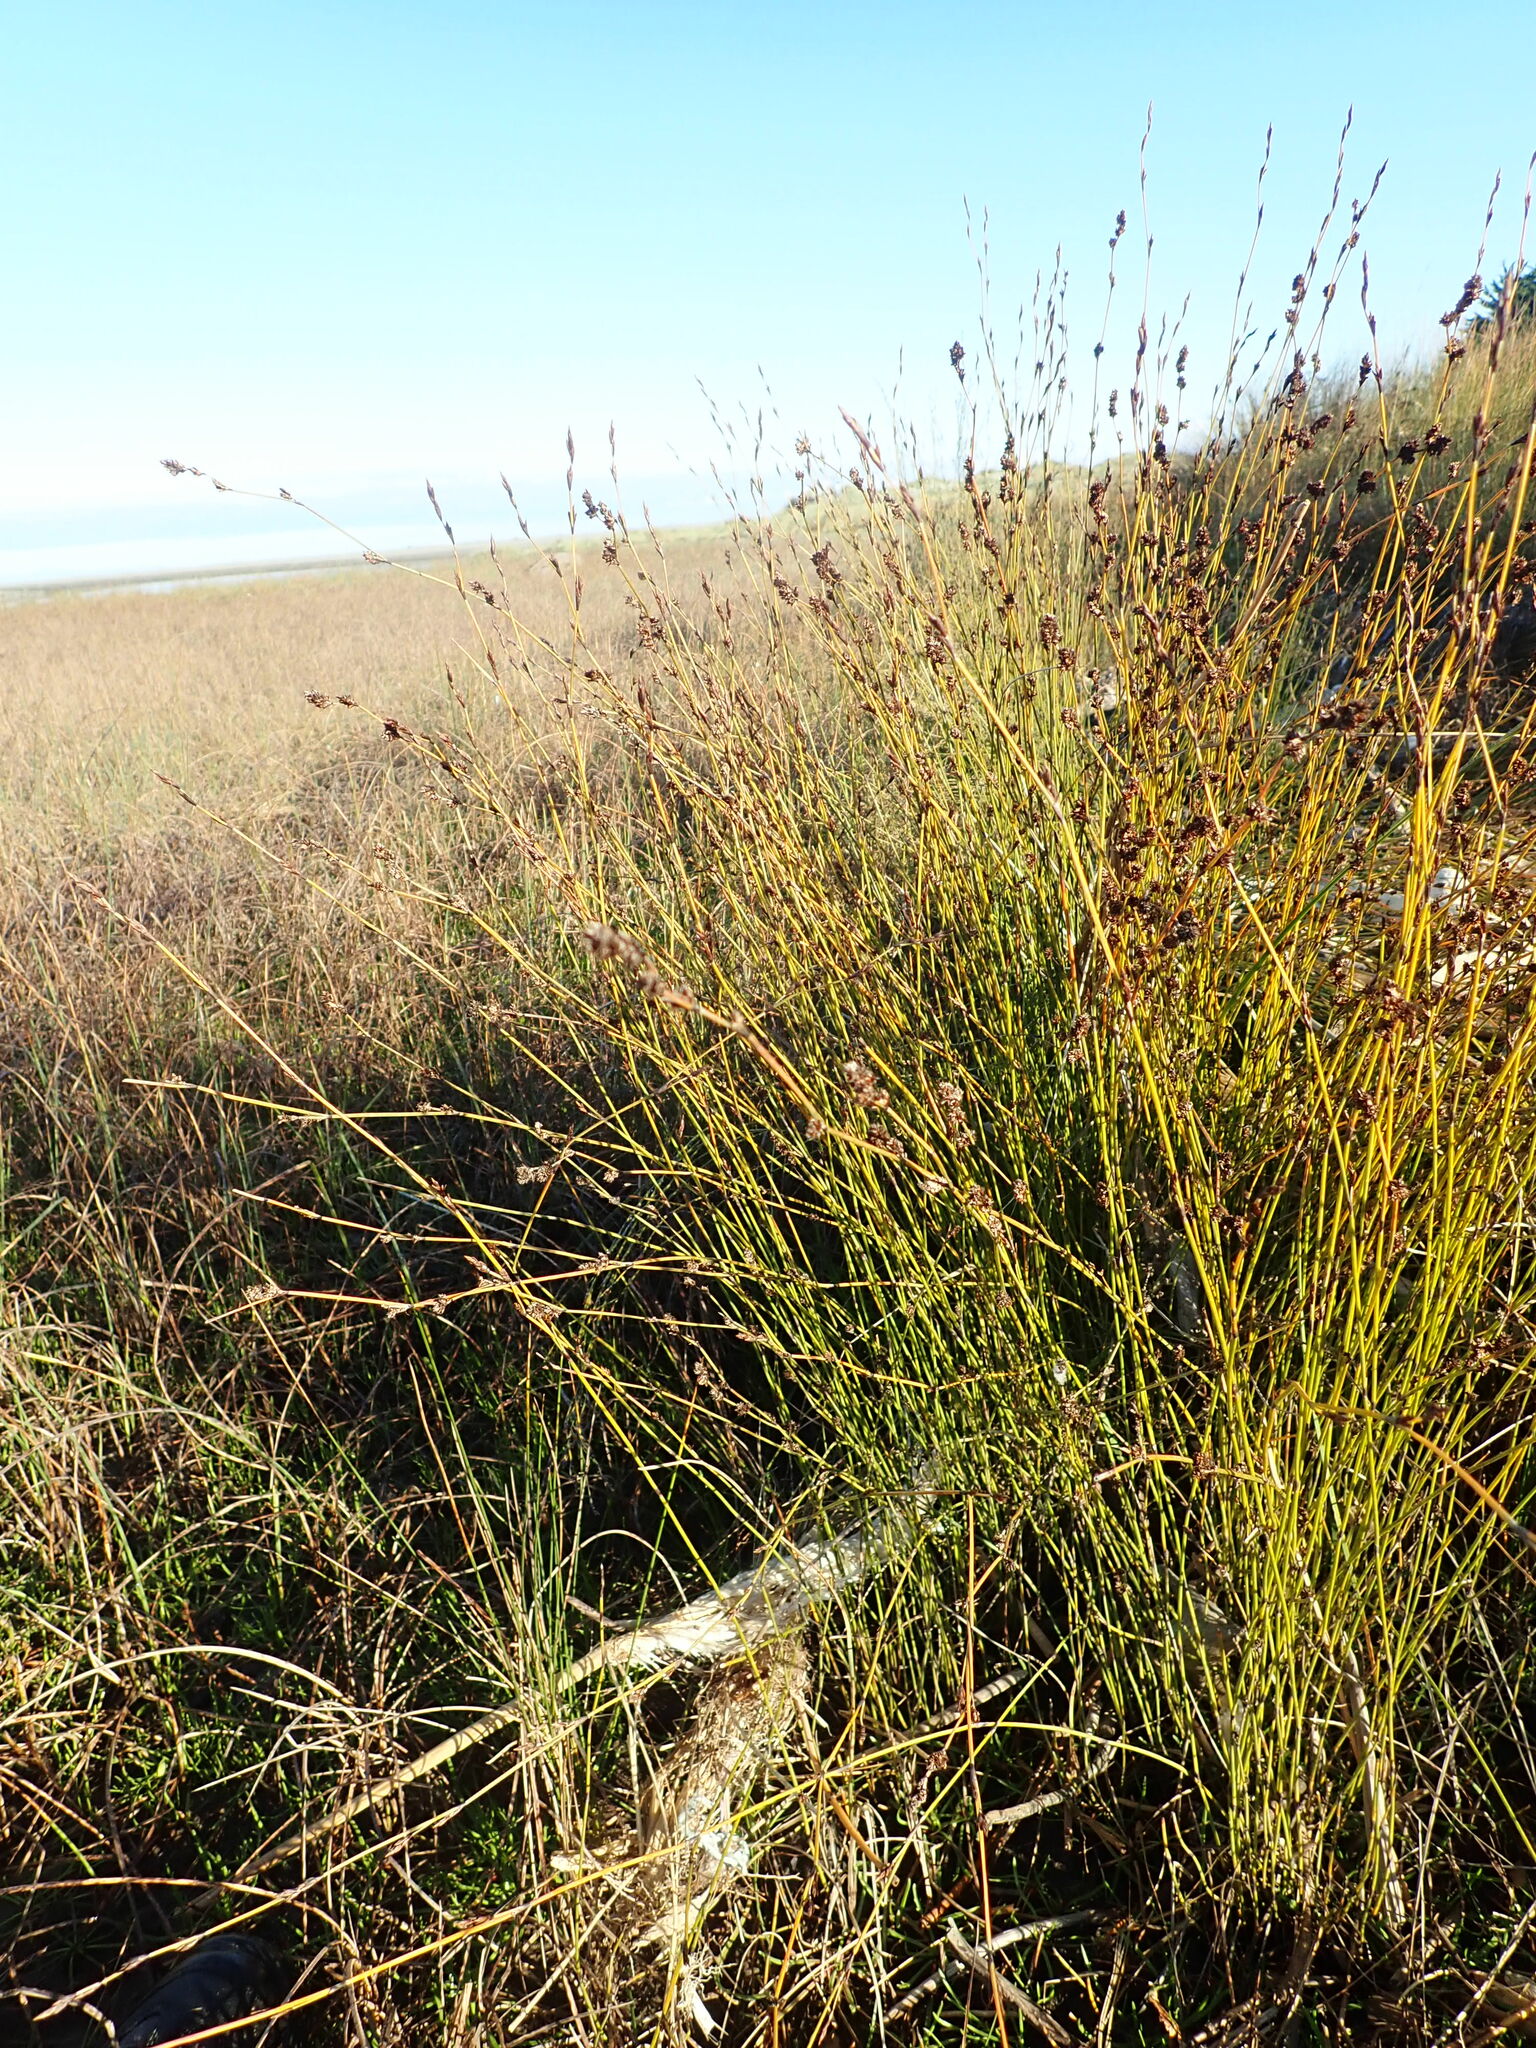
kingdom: Plantae
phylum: Tracheophyta
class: Liliopsida
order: Poales
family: Restionaceae
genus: Apodasmia
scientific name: Apodasmia similis
